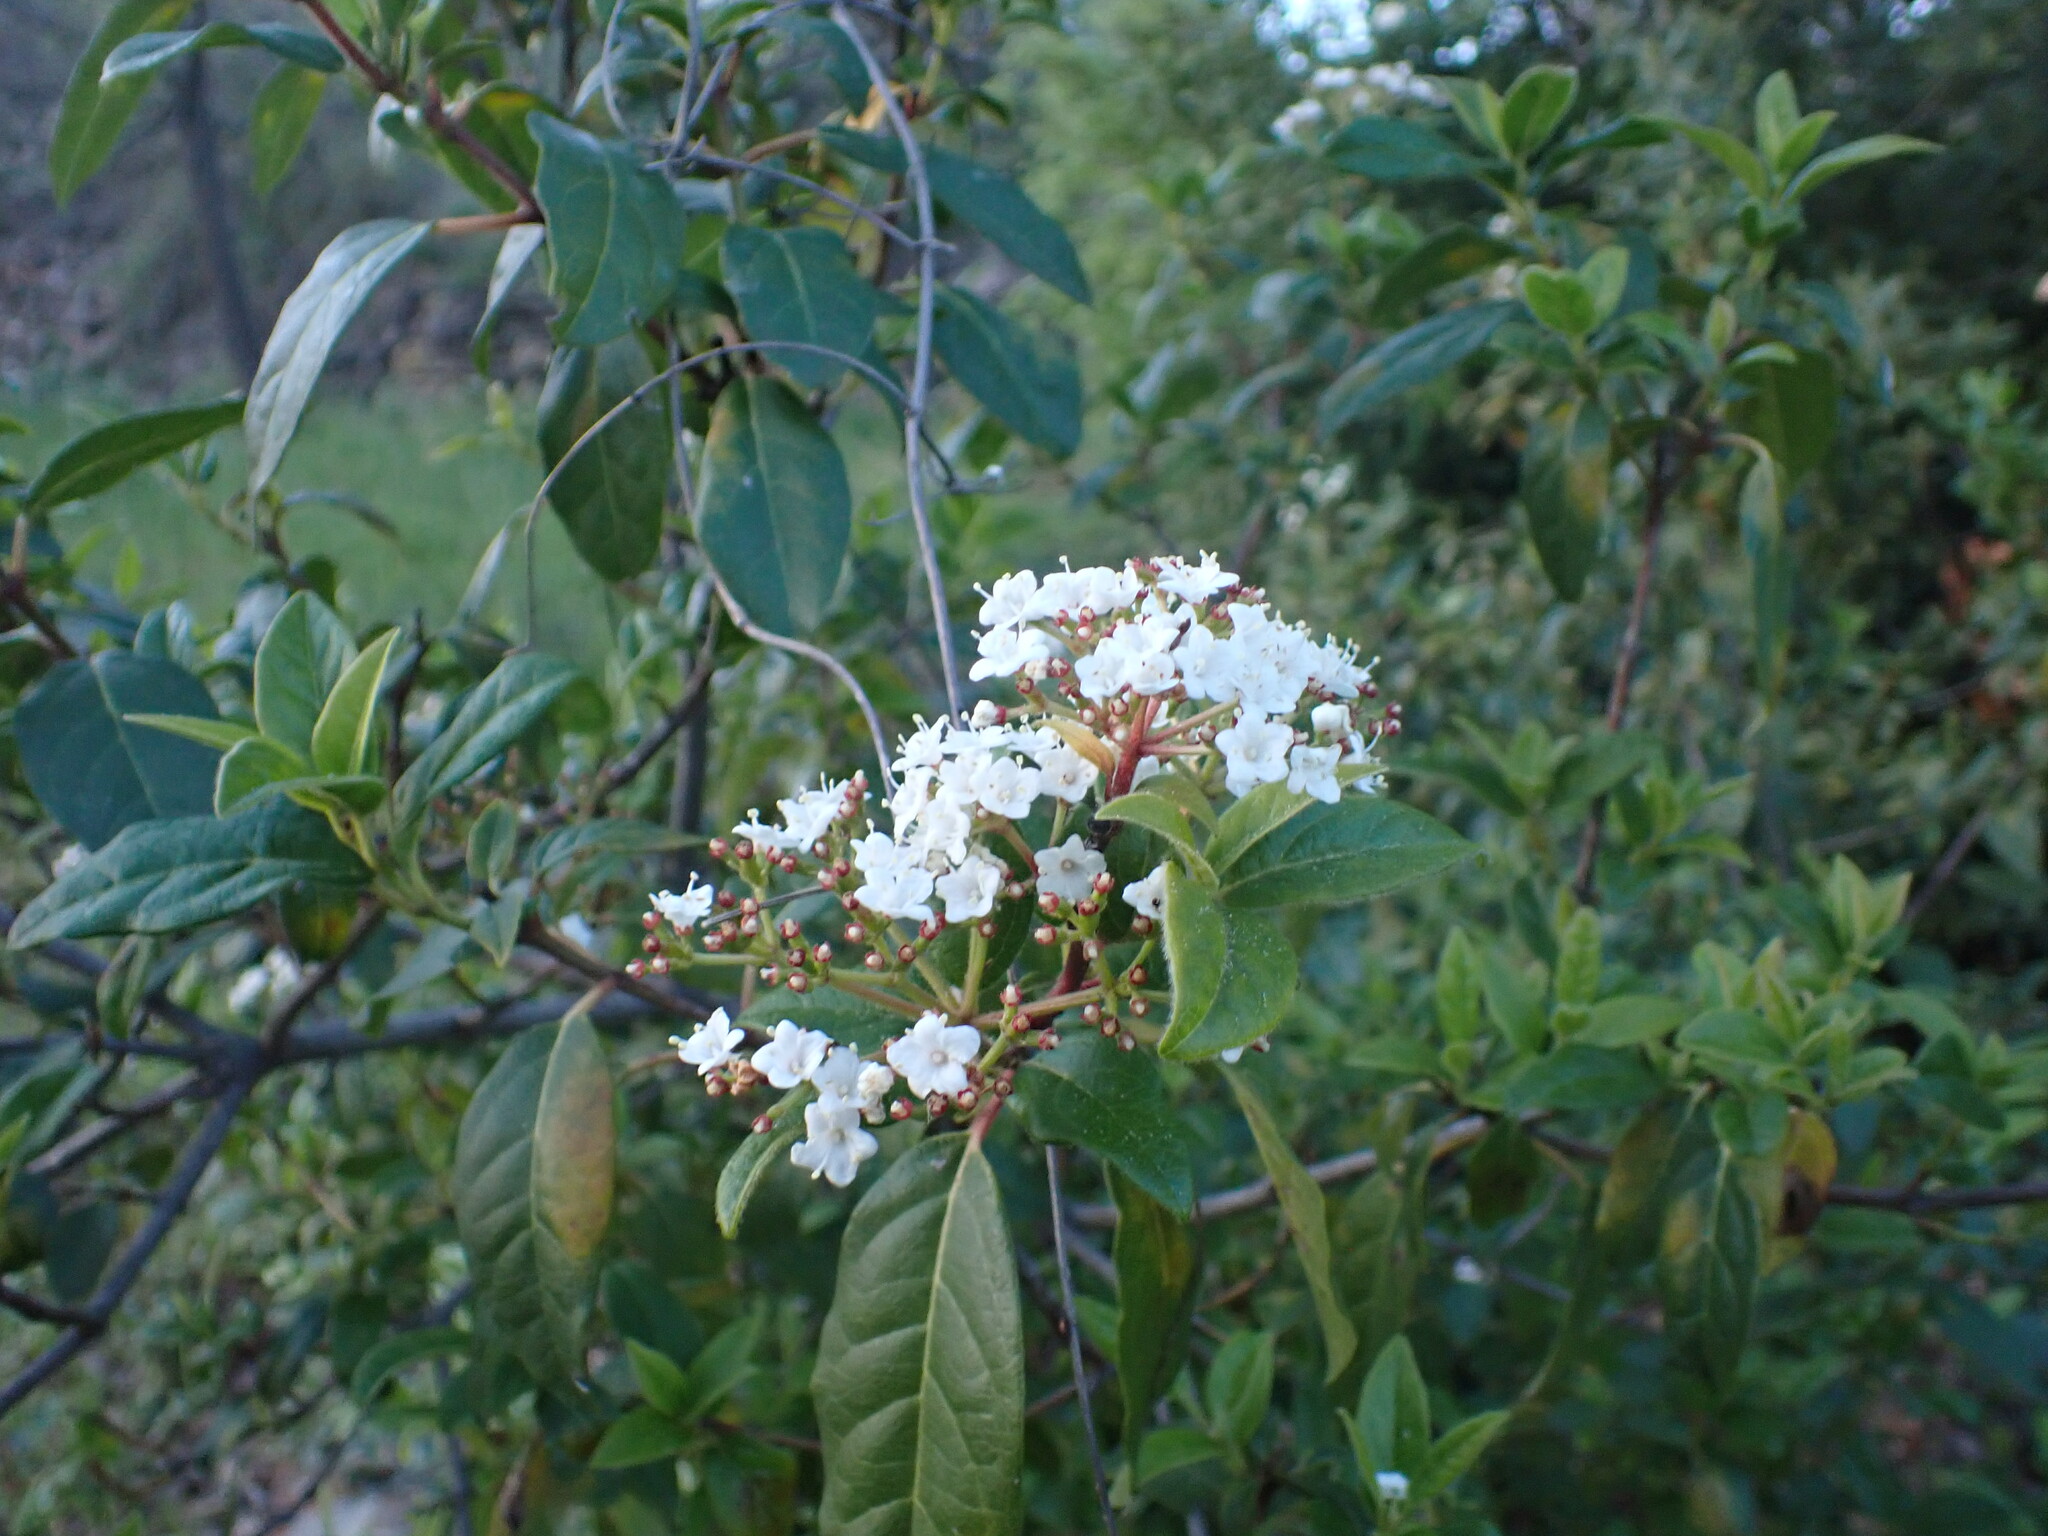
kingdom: Plantae
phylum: Tracheophyta
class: Magnoliopsida
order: Dipsacales
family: Viburnaceae
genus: Viburnum
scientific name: Viburnum tinus
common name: Laurustinus
